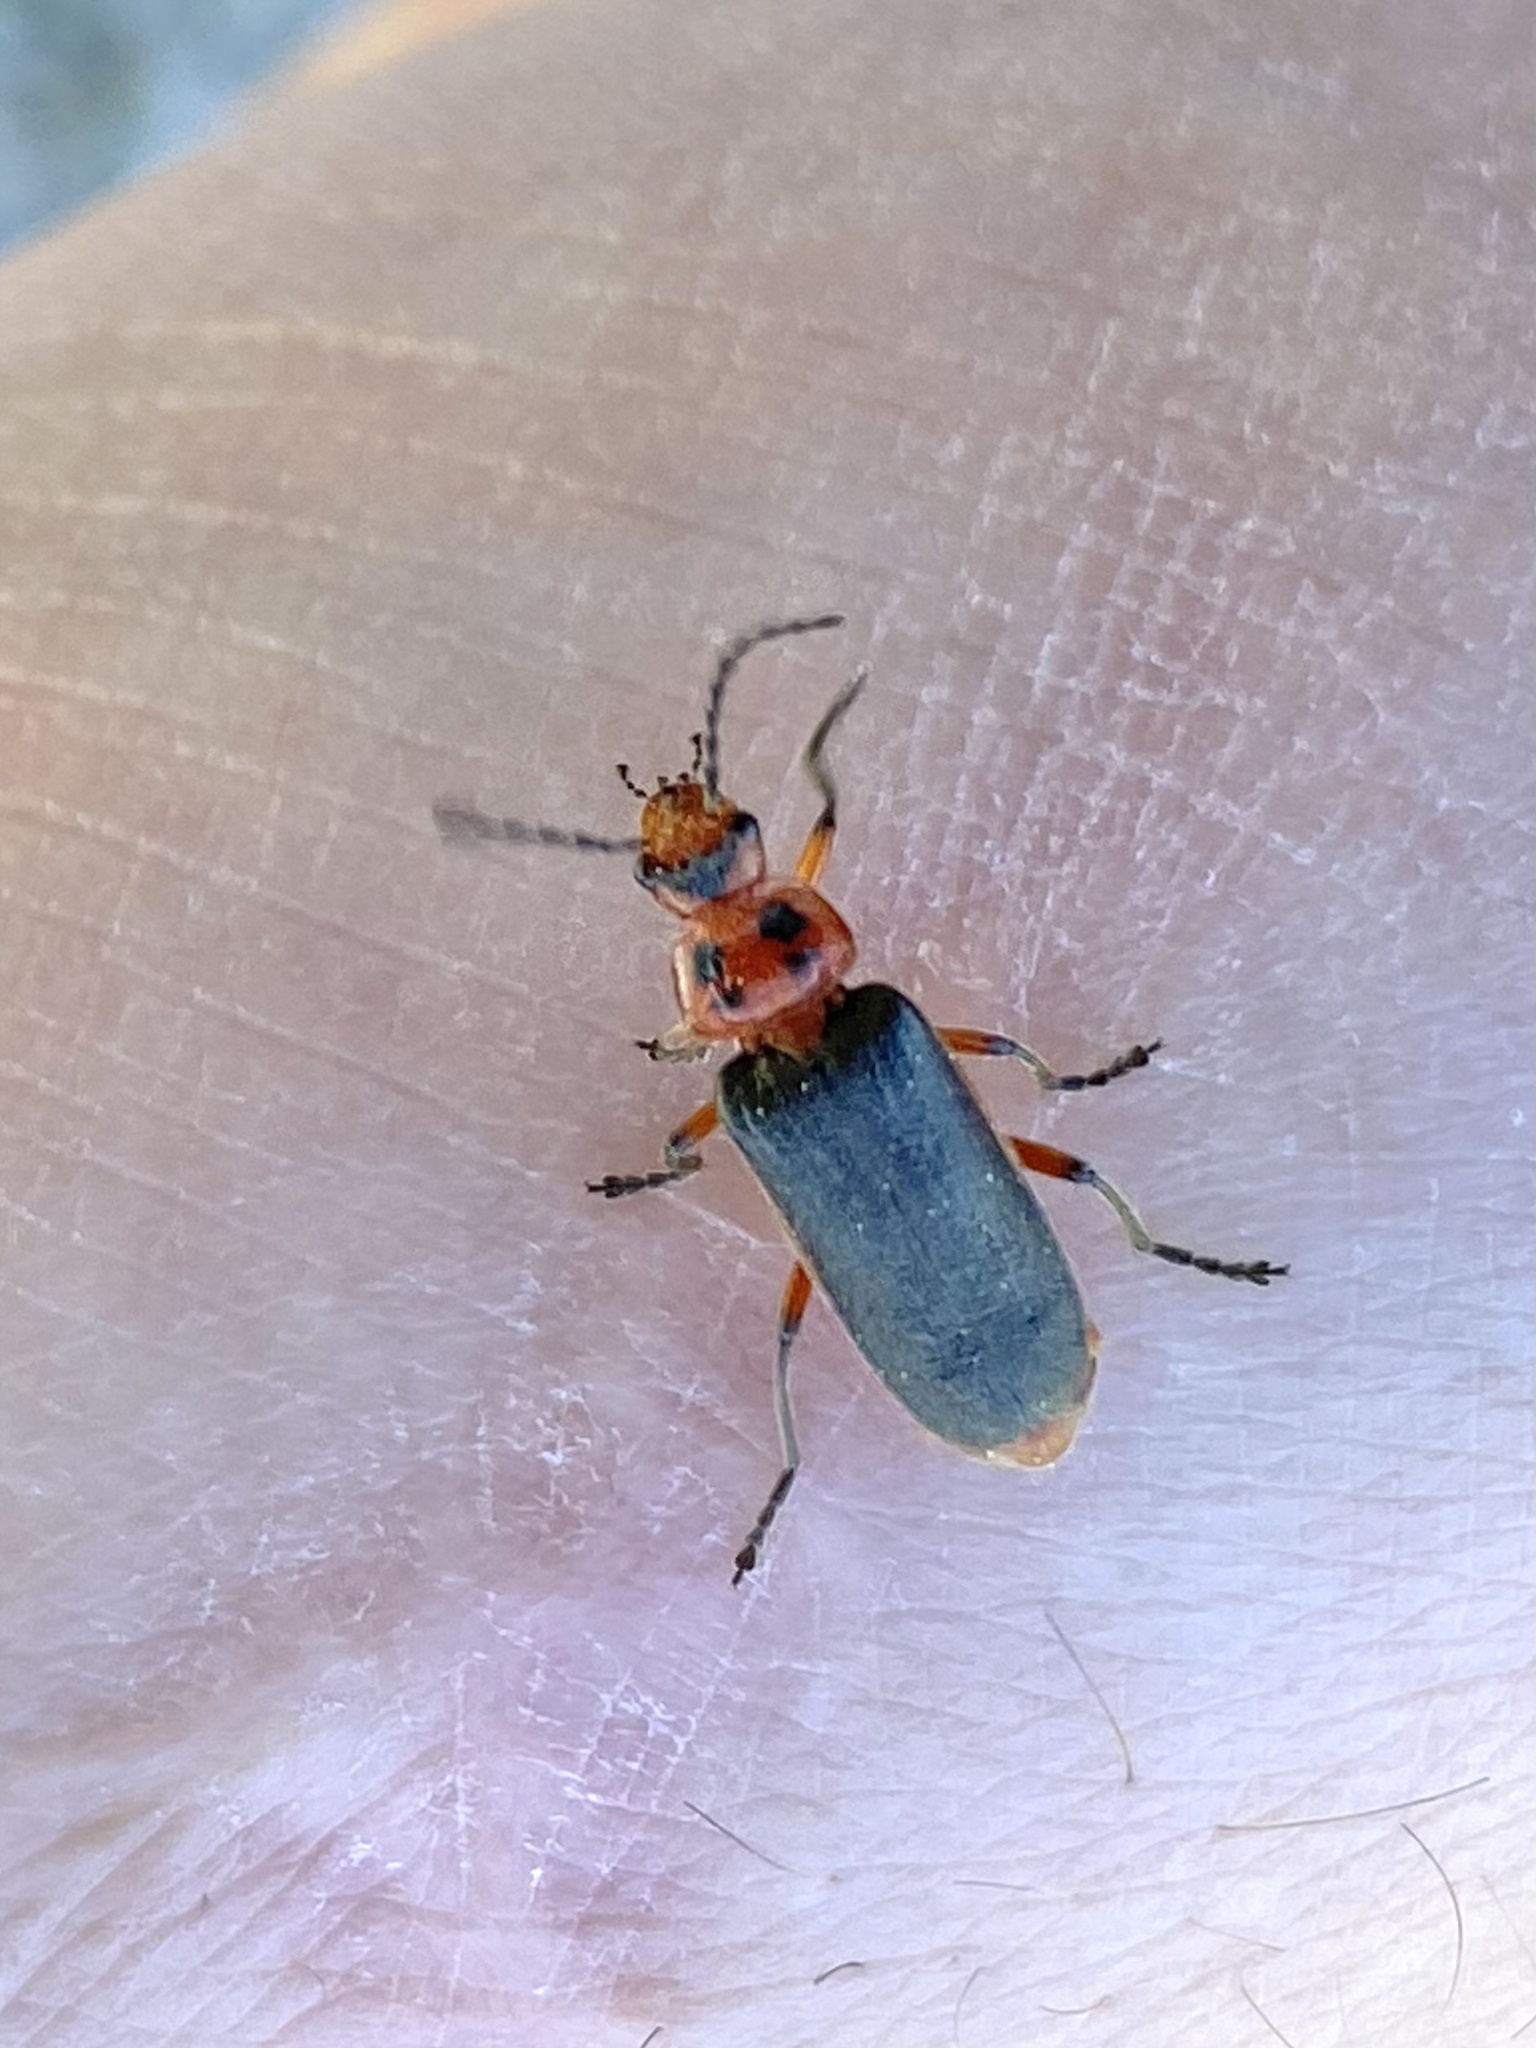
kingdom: Animalia
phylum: Arthropoda
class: Insecta
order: Coleoptera
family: Cantharidae
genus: Atalantycha
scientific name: Atalantycha bilineata
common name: Two-lined leatherwing
